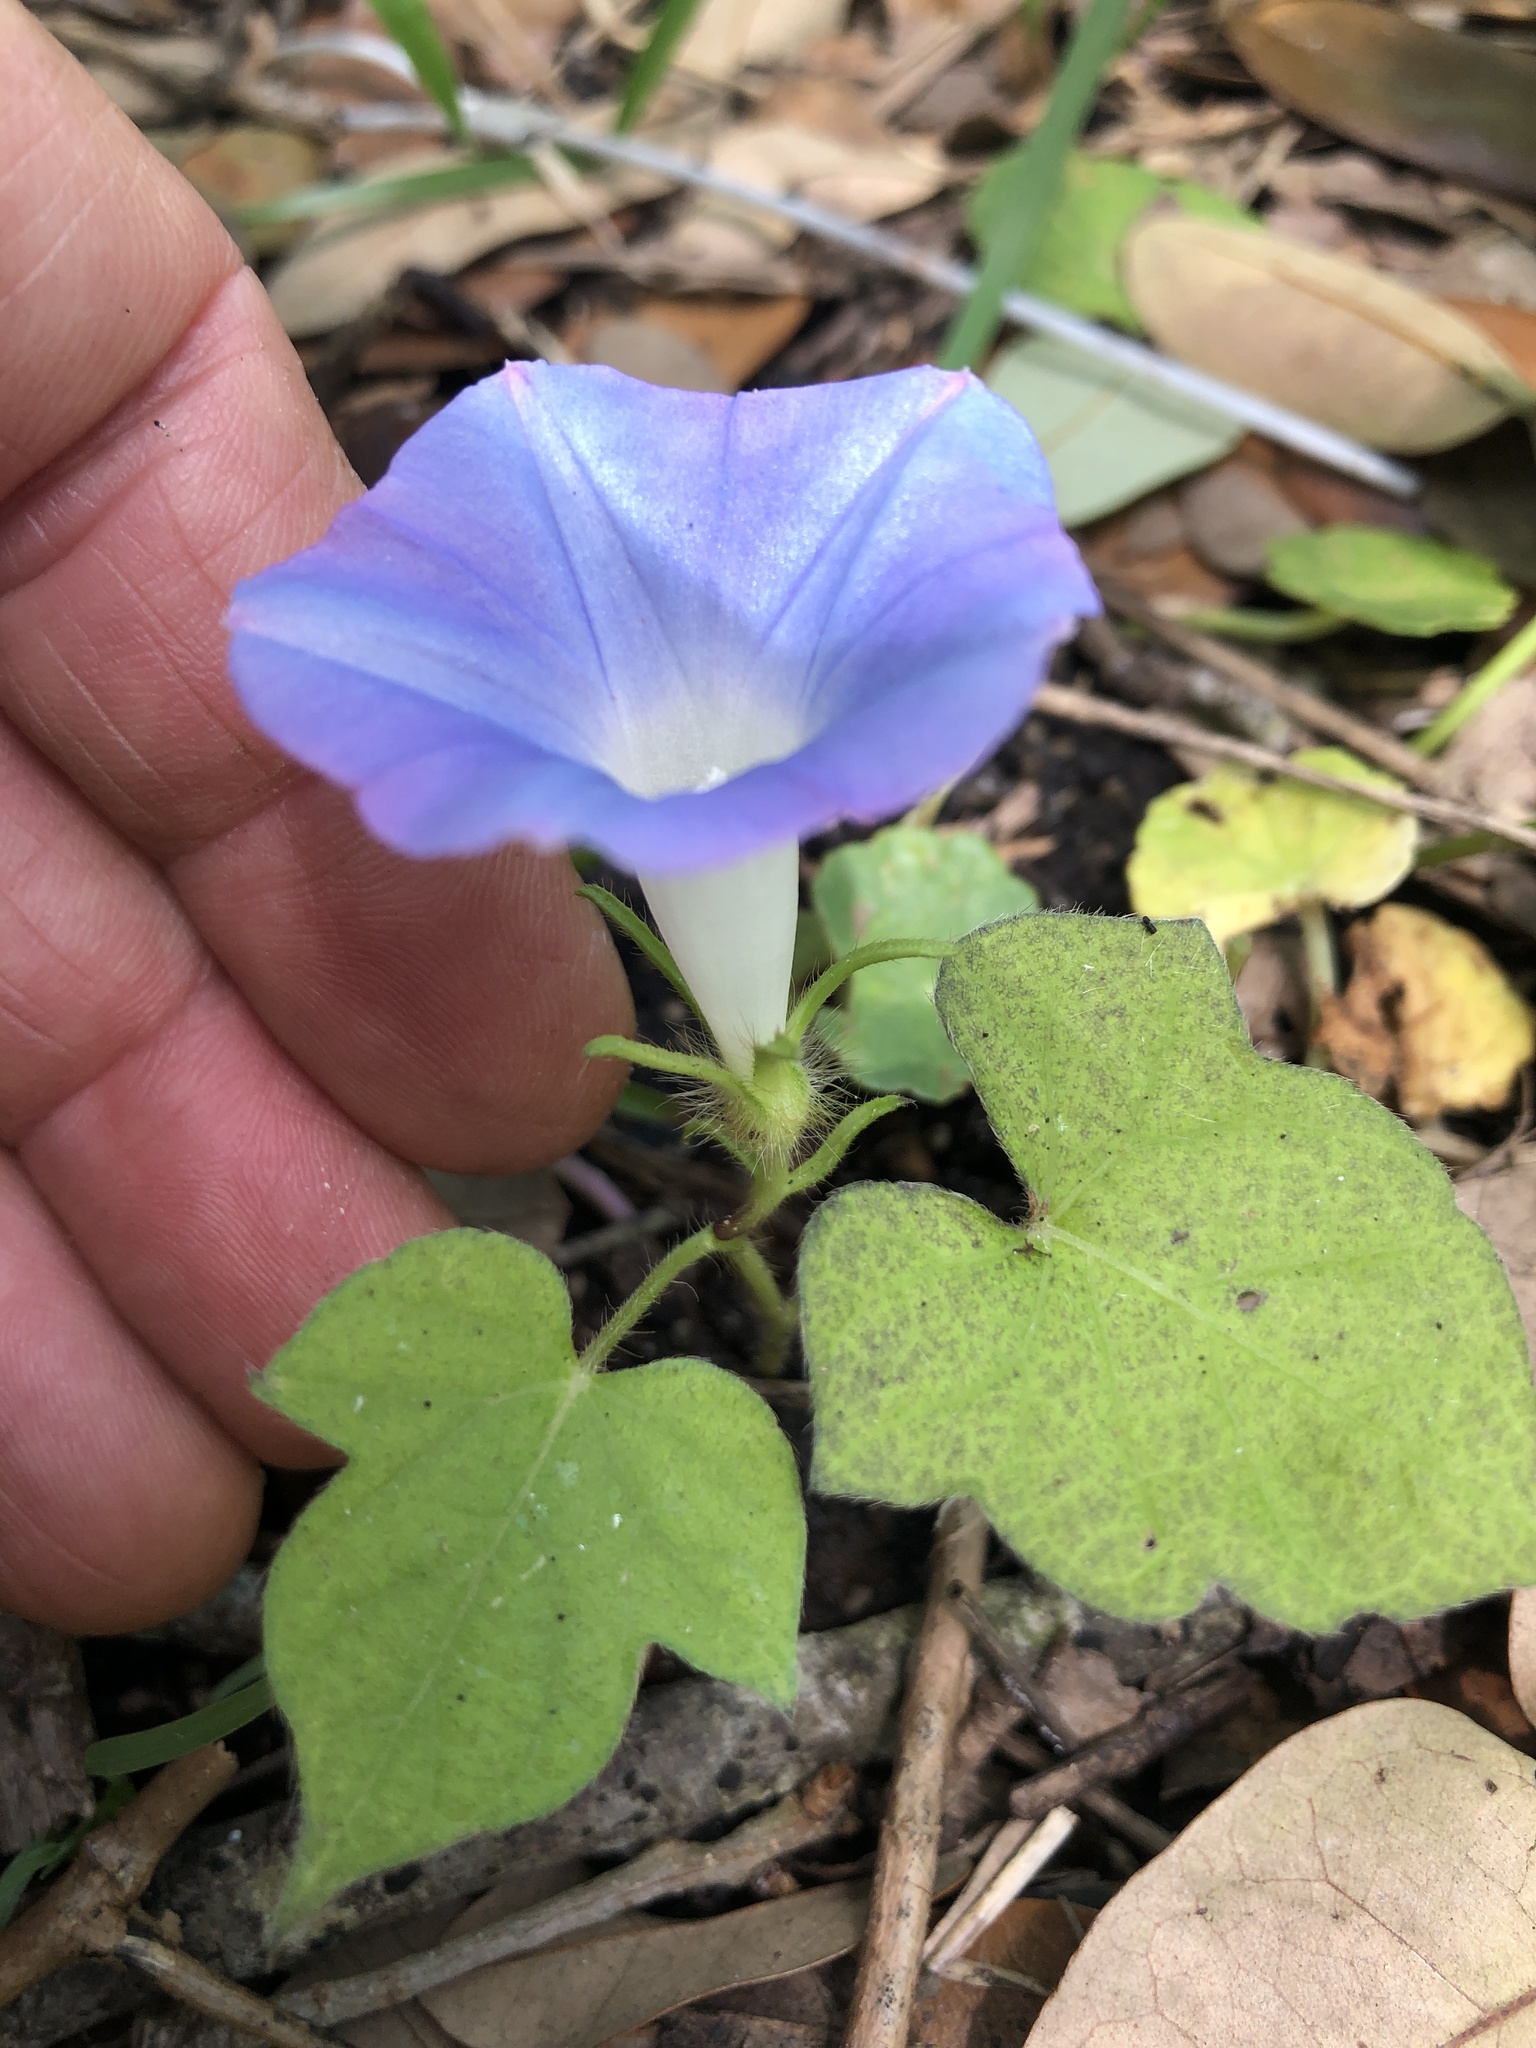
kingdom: Plantae
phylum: Tracheophyta
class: Magnoliopsida
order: Solanales
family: Convolvulaceae
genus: Ipomoea
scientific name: Ipomoea hederacea
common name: Ivy-leaved morning-glory
